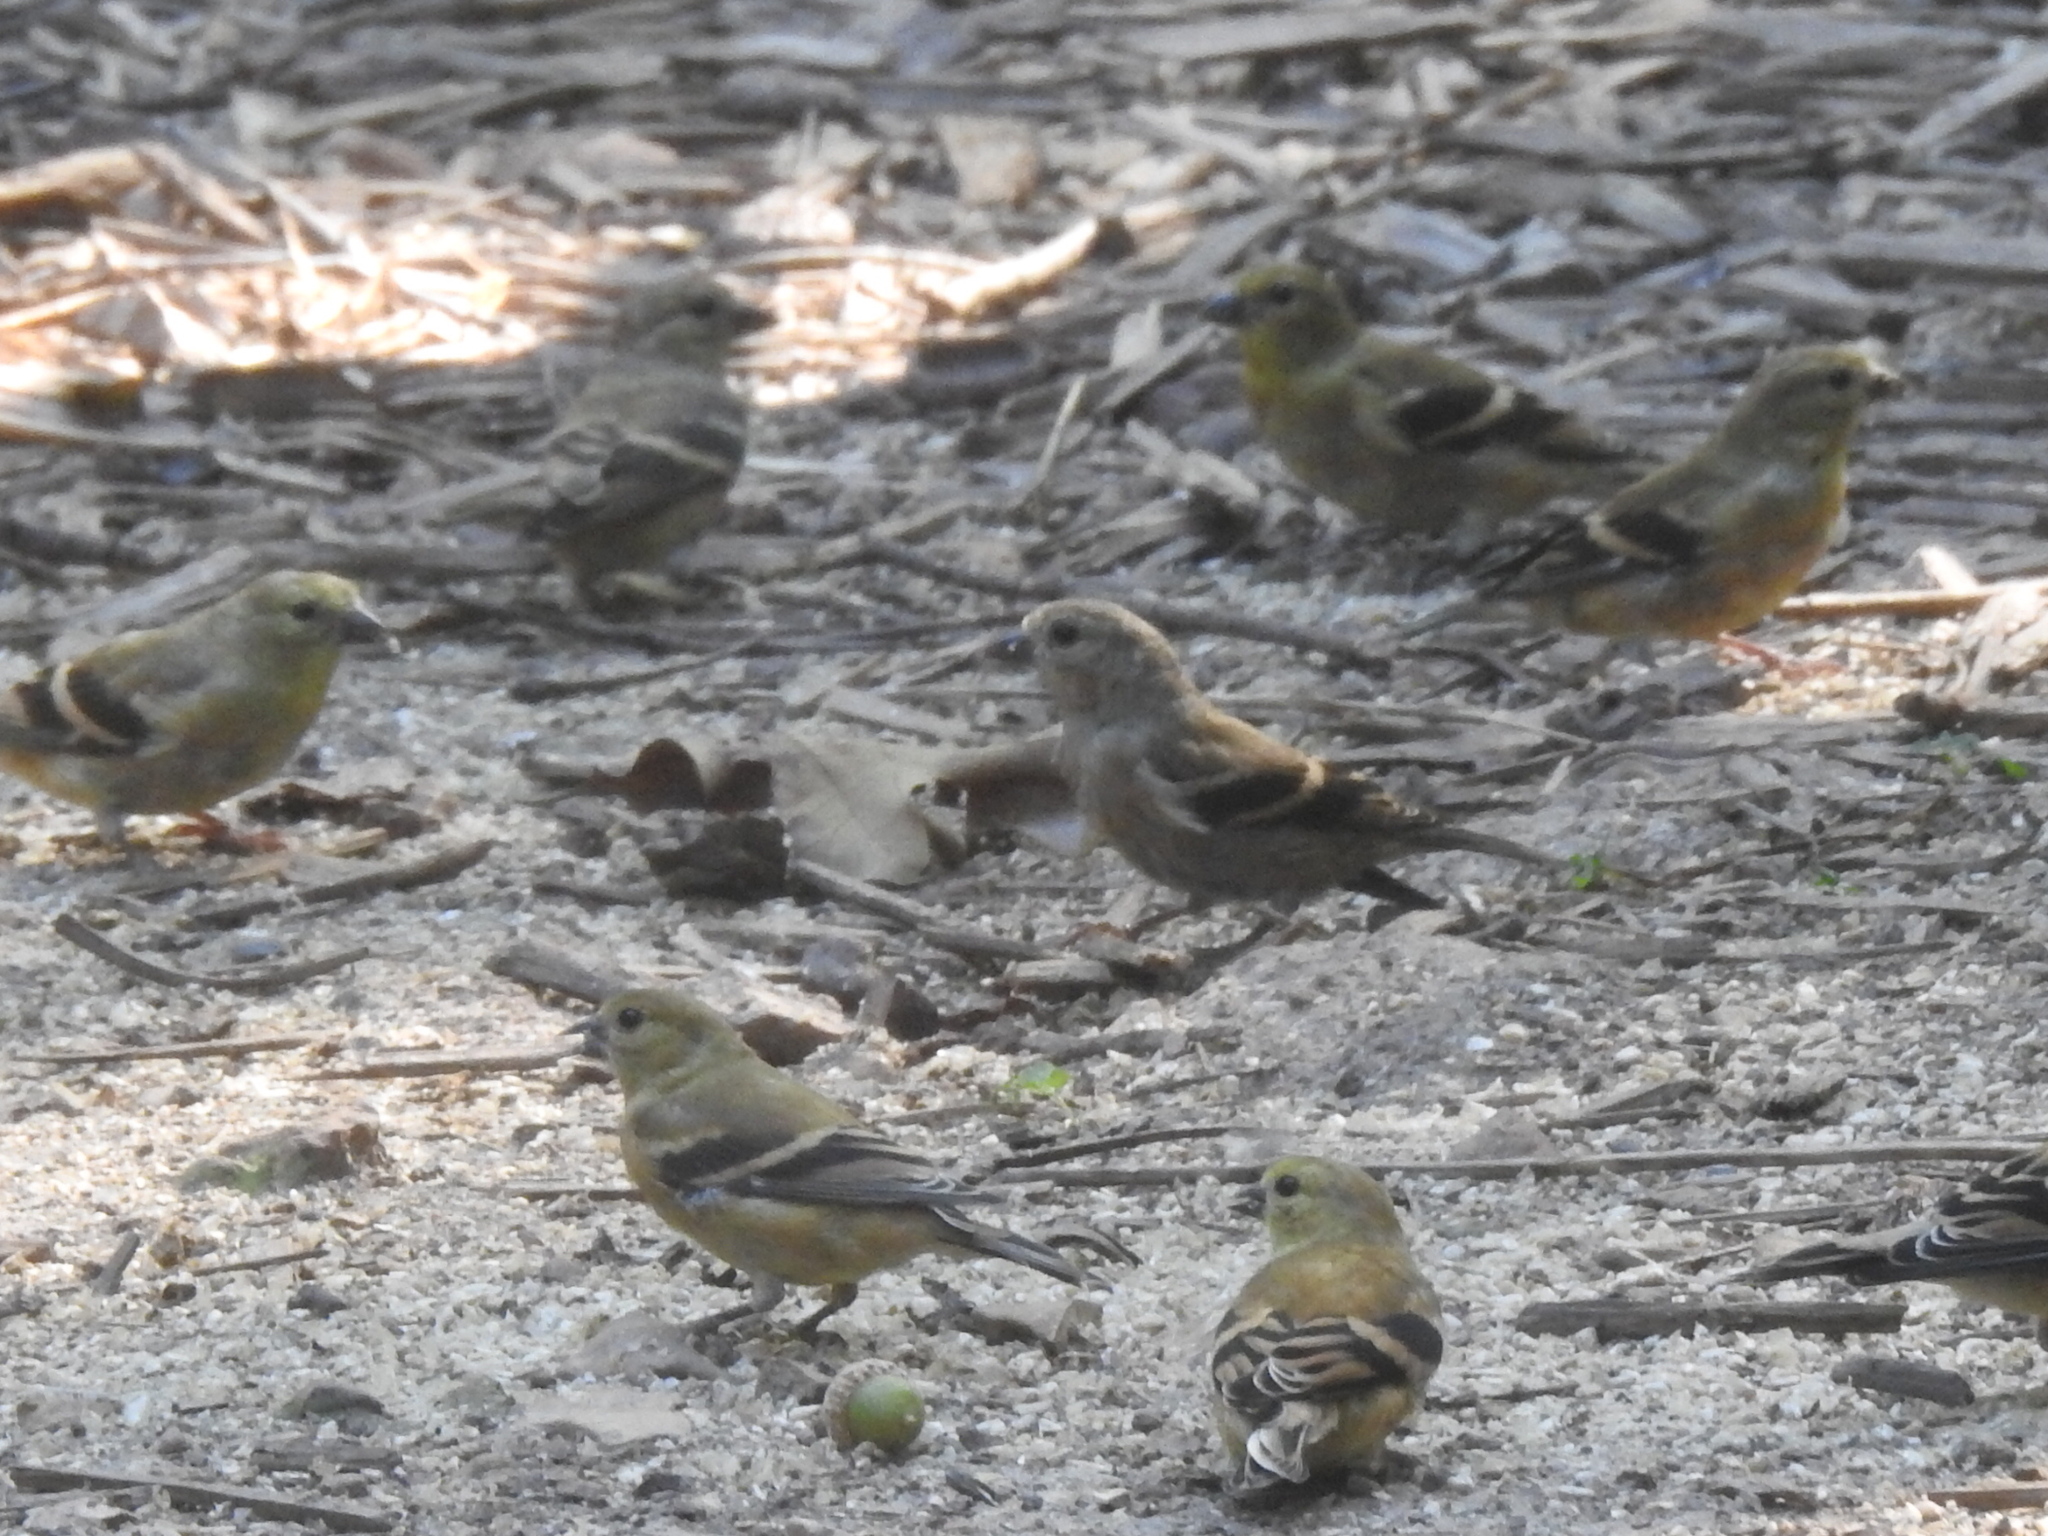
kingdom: Animalia
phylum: Chordata
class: Aves
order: Passeriformes
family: Fringillidae
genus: Spinus
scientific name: Spinus tristis
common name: American goldfinch
